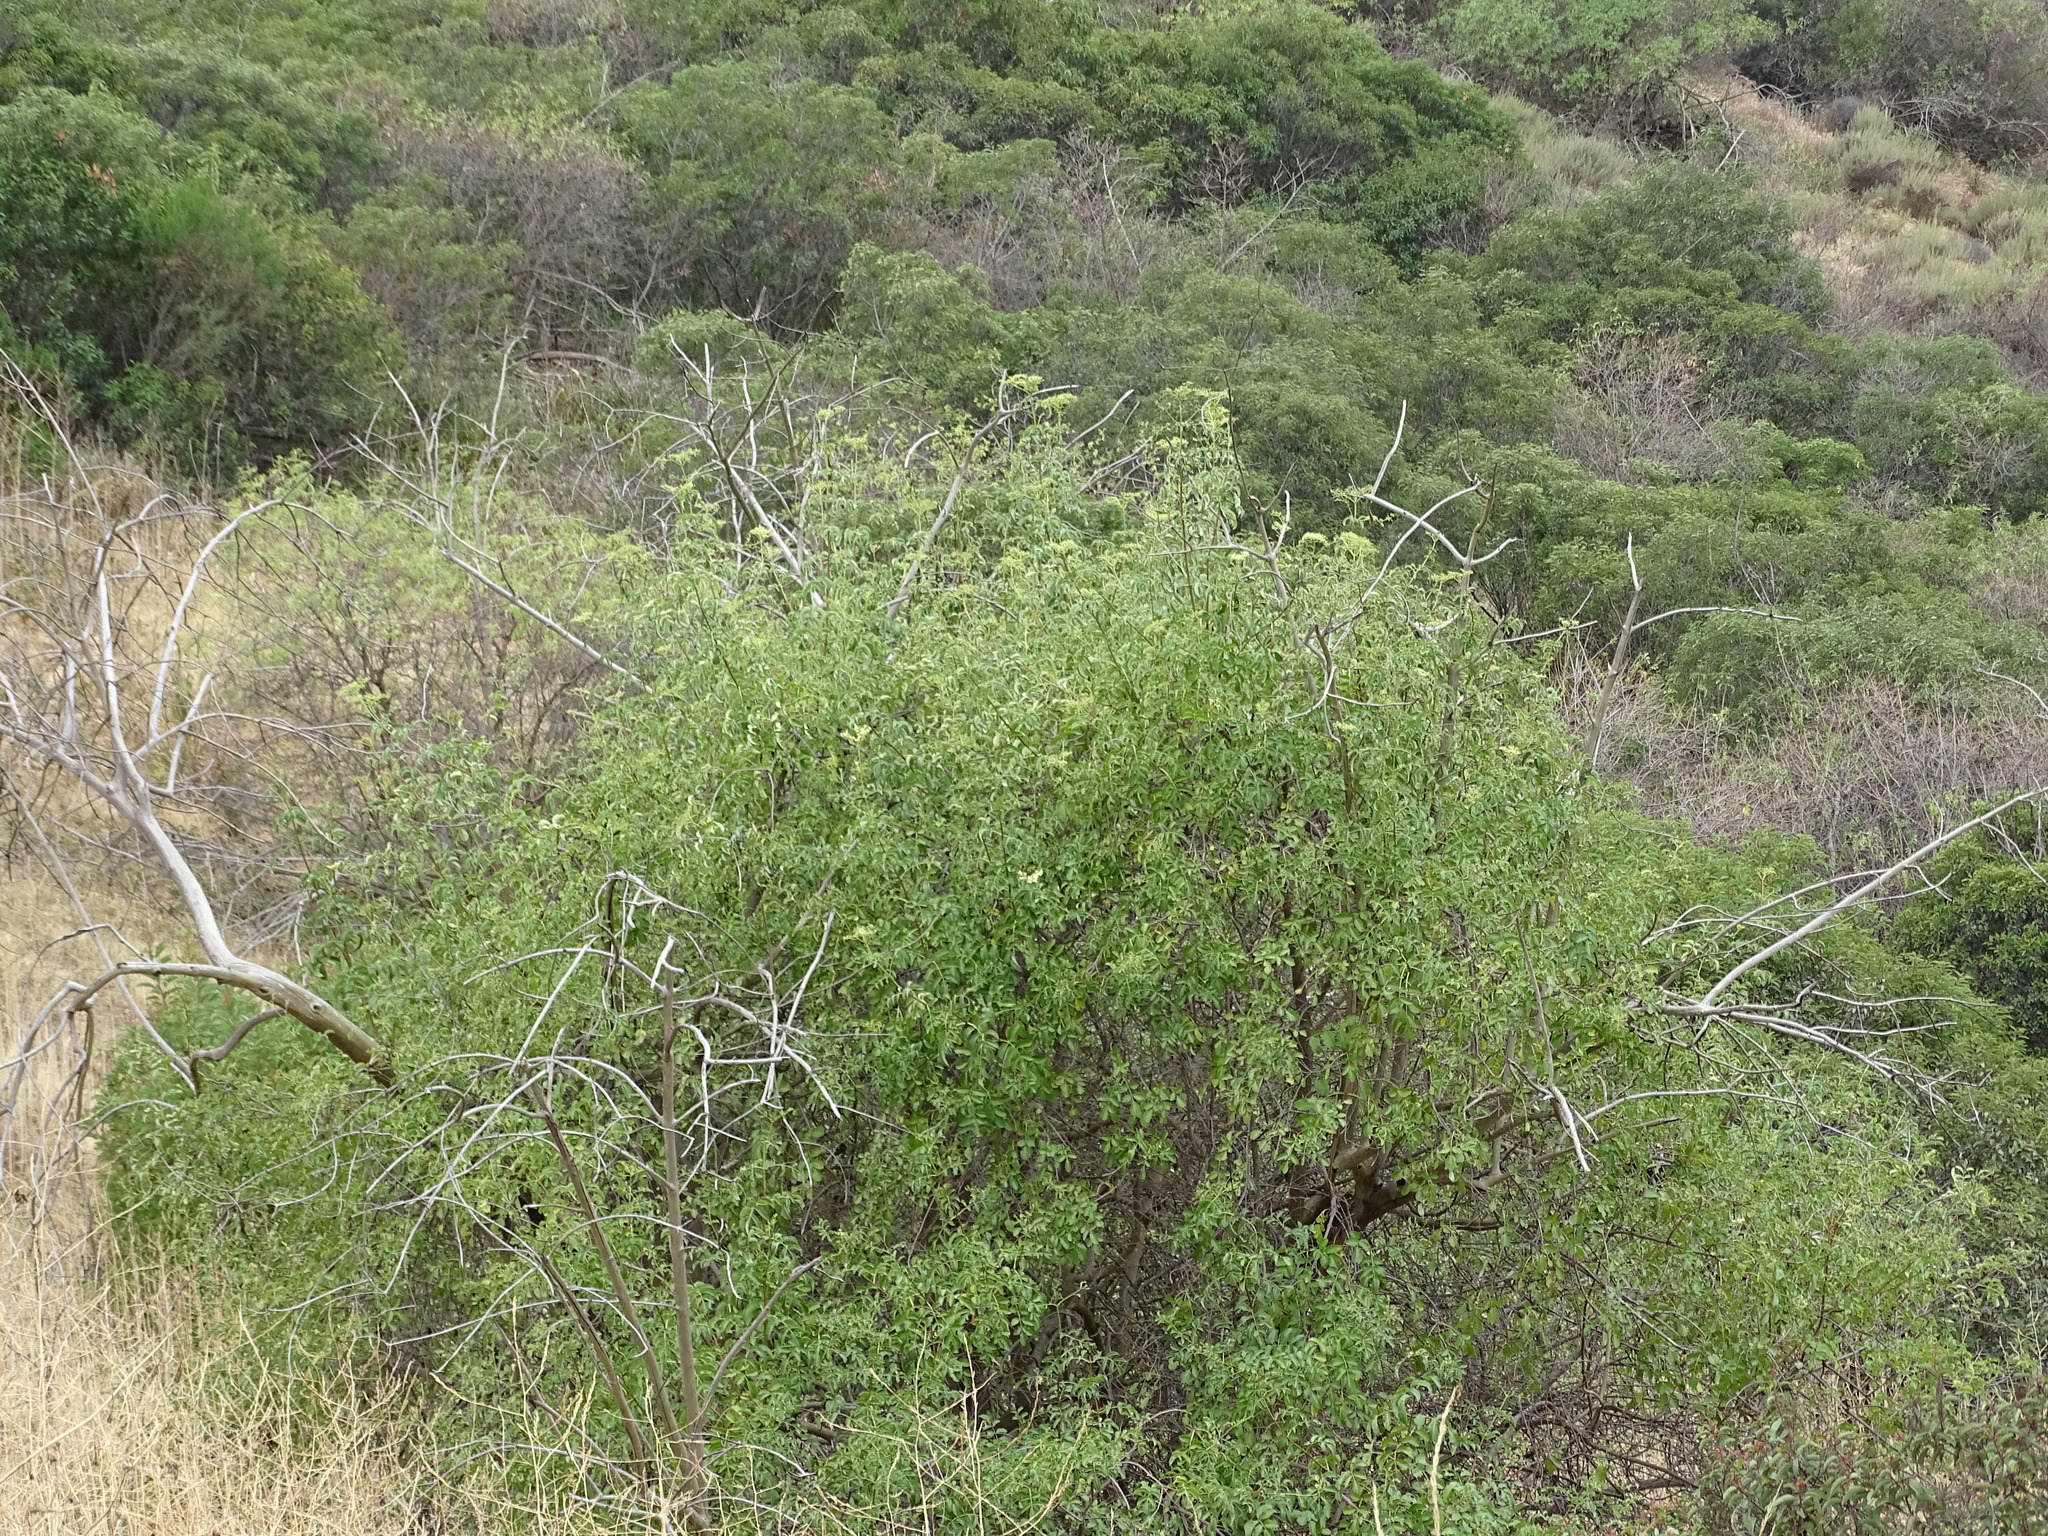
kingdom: Plantae
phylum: Tracheophyta
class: Magnoliopsida
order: Dipsacales
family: Viburnaceae
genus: Sambucus
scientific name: Sambucus cerulea
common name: Blue elder
